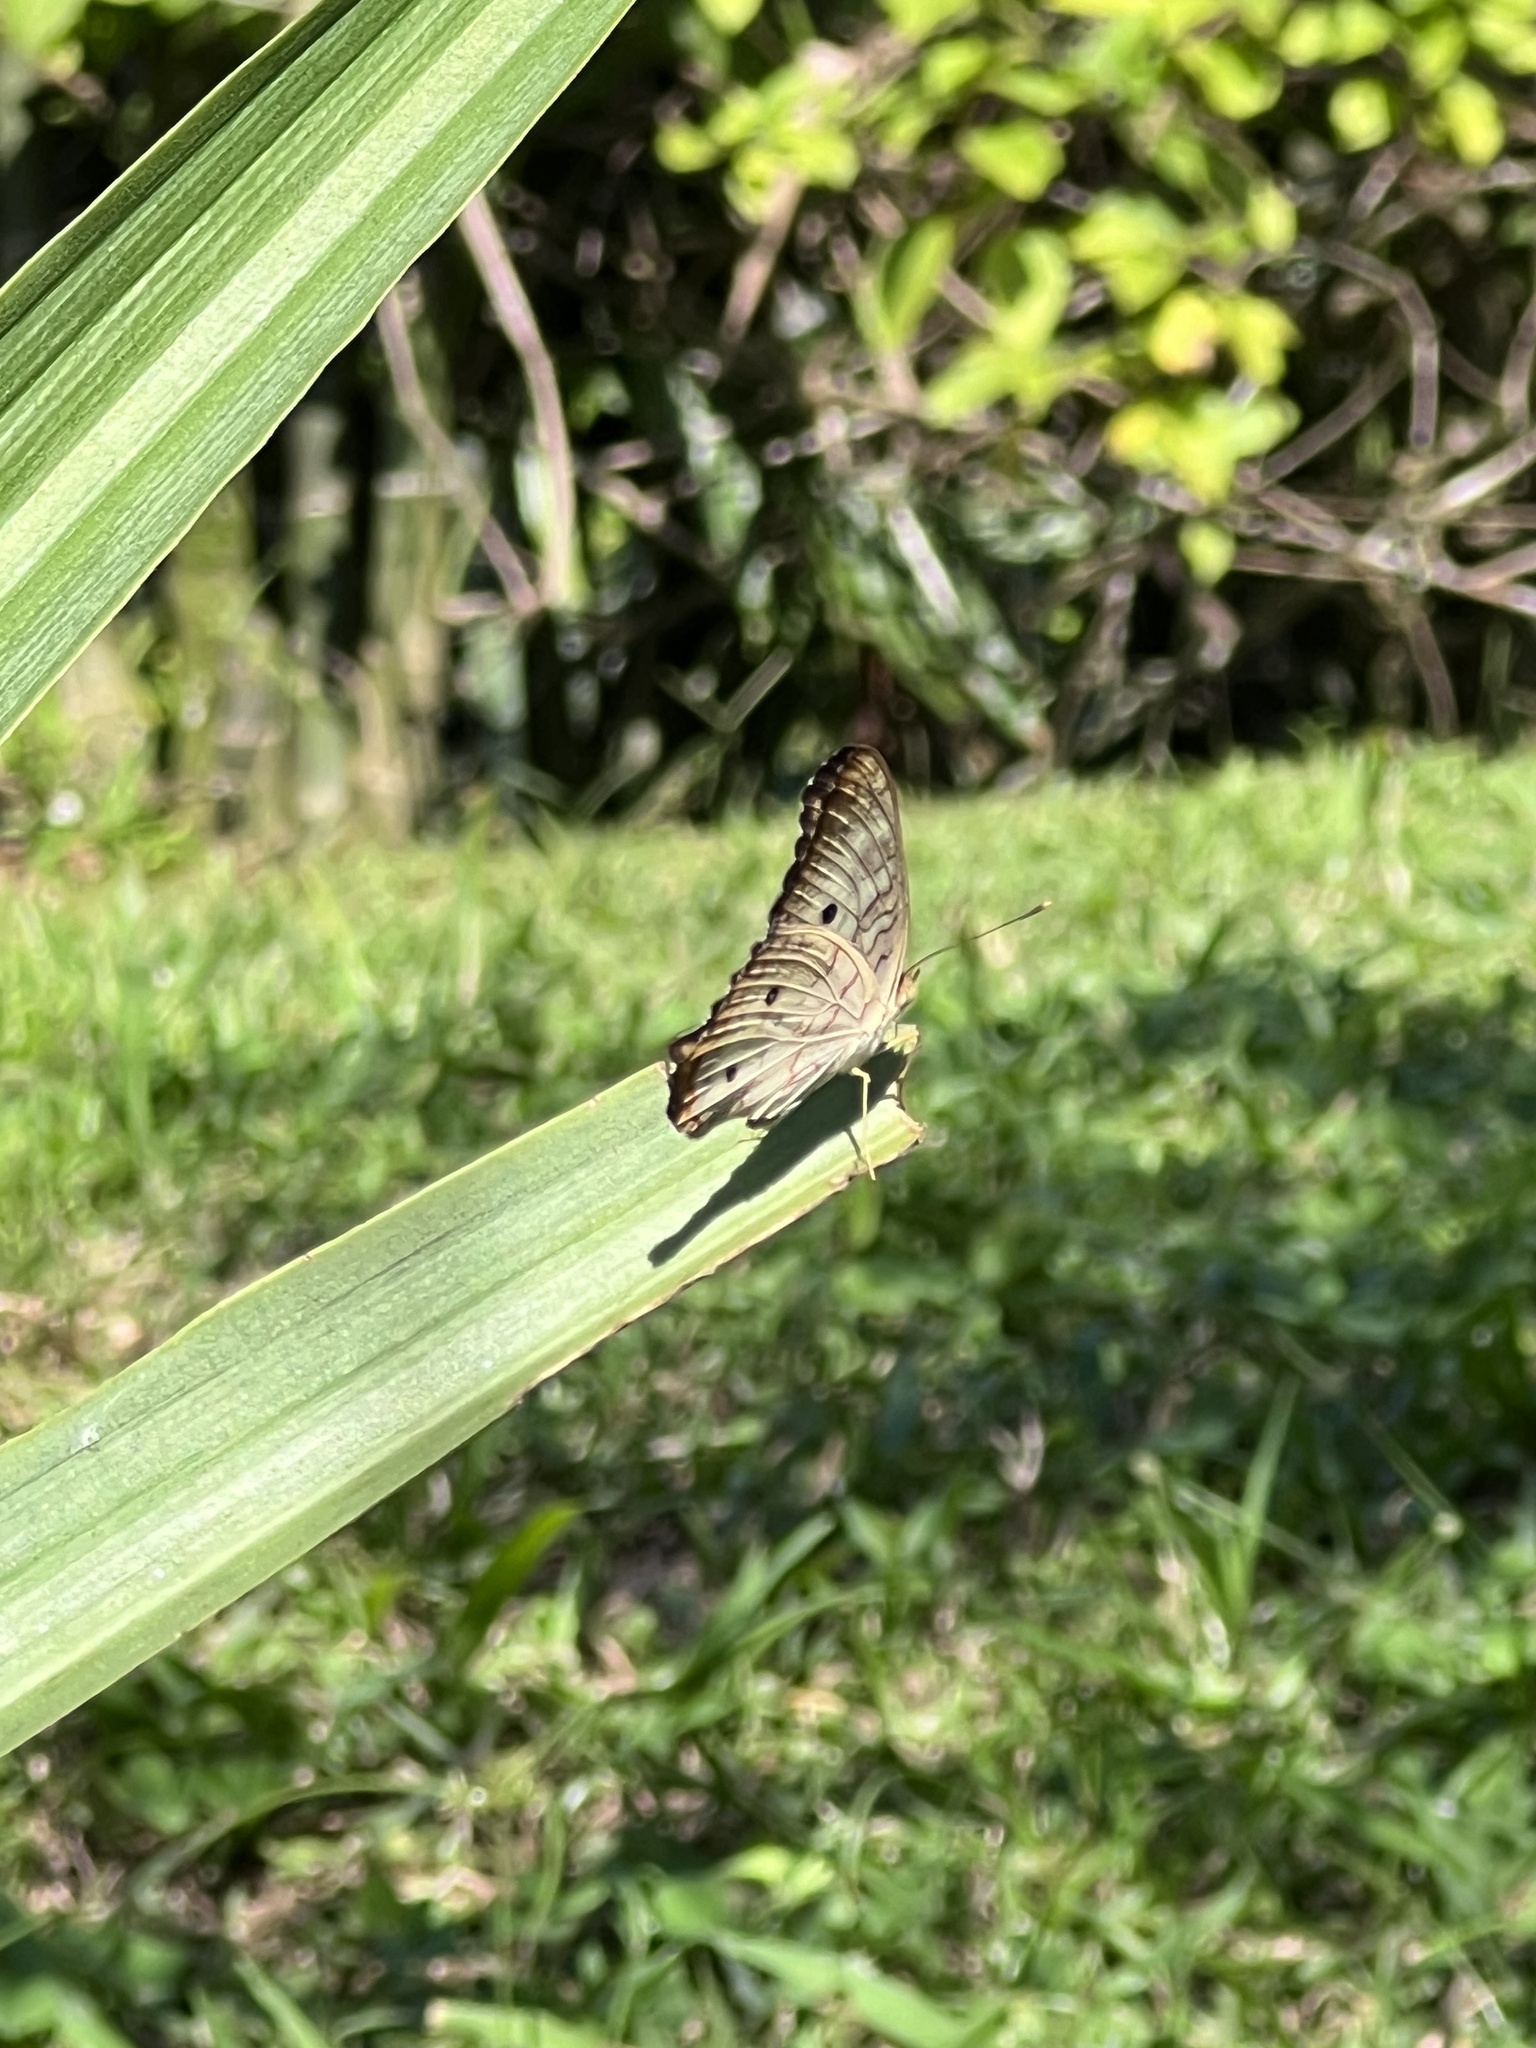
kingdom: Animalia
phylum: Arthropoda
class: Insecta
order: Lepidoptera
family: Nymphalidae
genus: Anartia
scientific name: Anartia jatrophae
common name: White peacock
